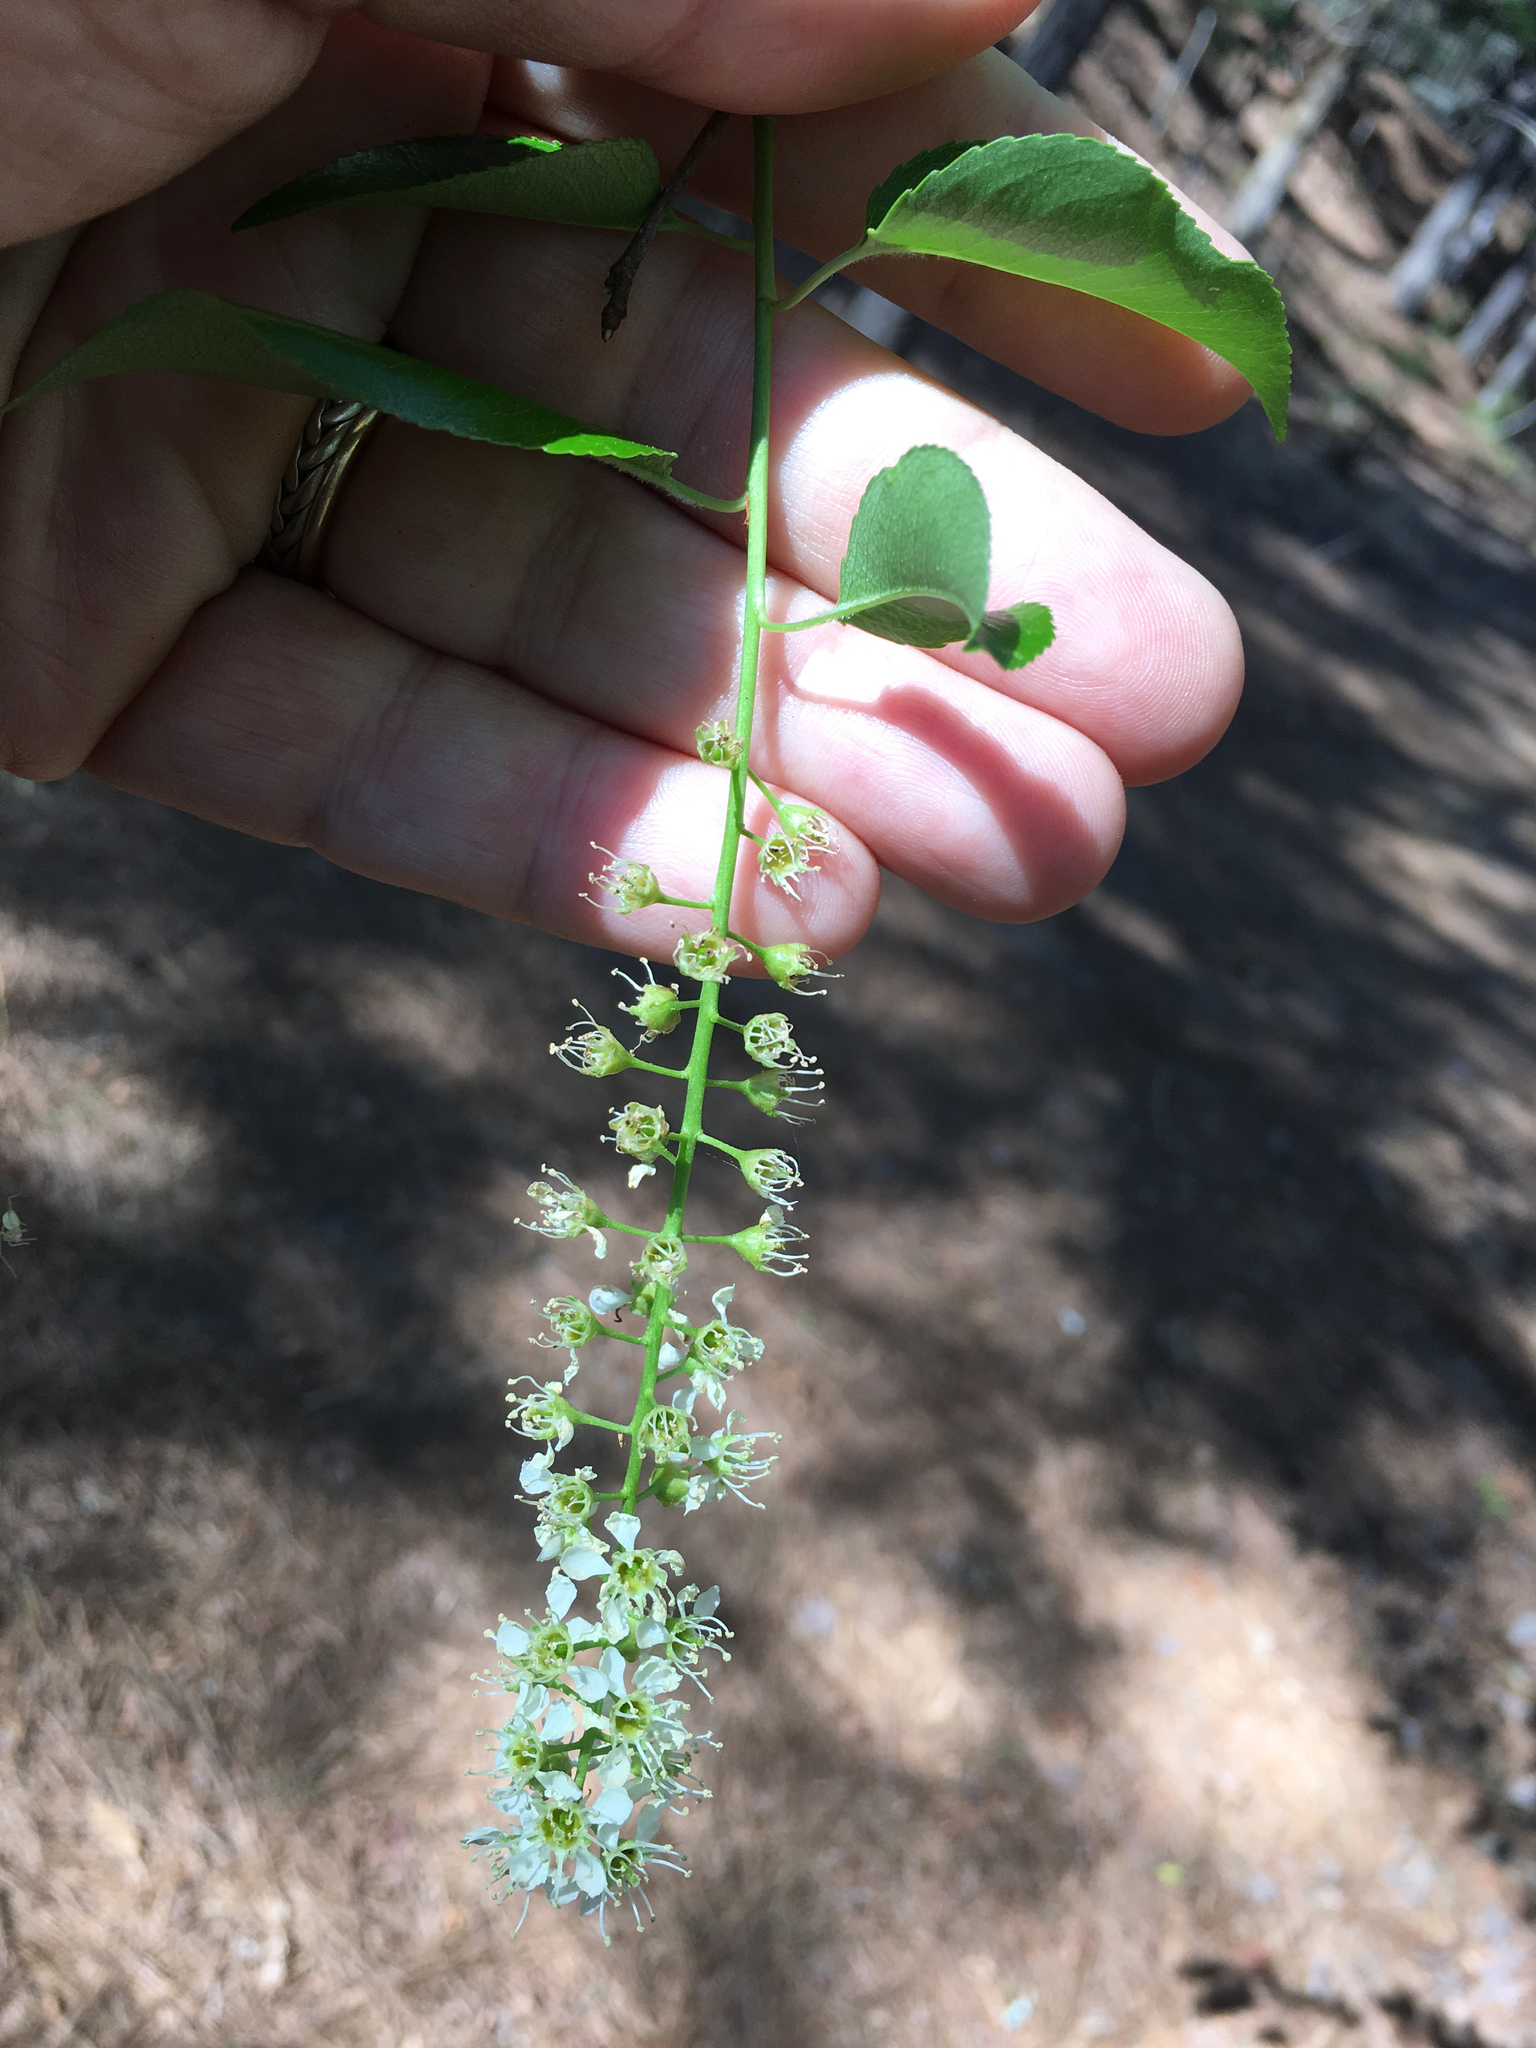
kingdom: Plantae
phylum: Tracheophyta
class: Magnoliopsida
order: Rosales
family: Rosaceae
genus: Prunus
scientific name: Prunus serotina
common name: Black cherry
